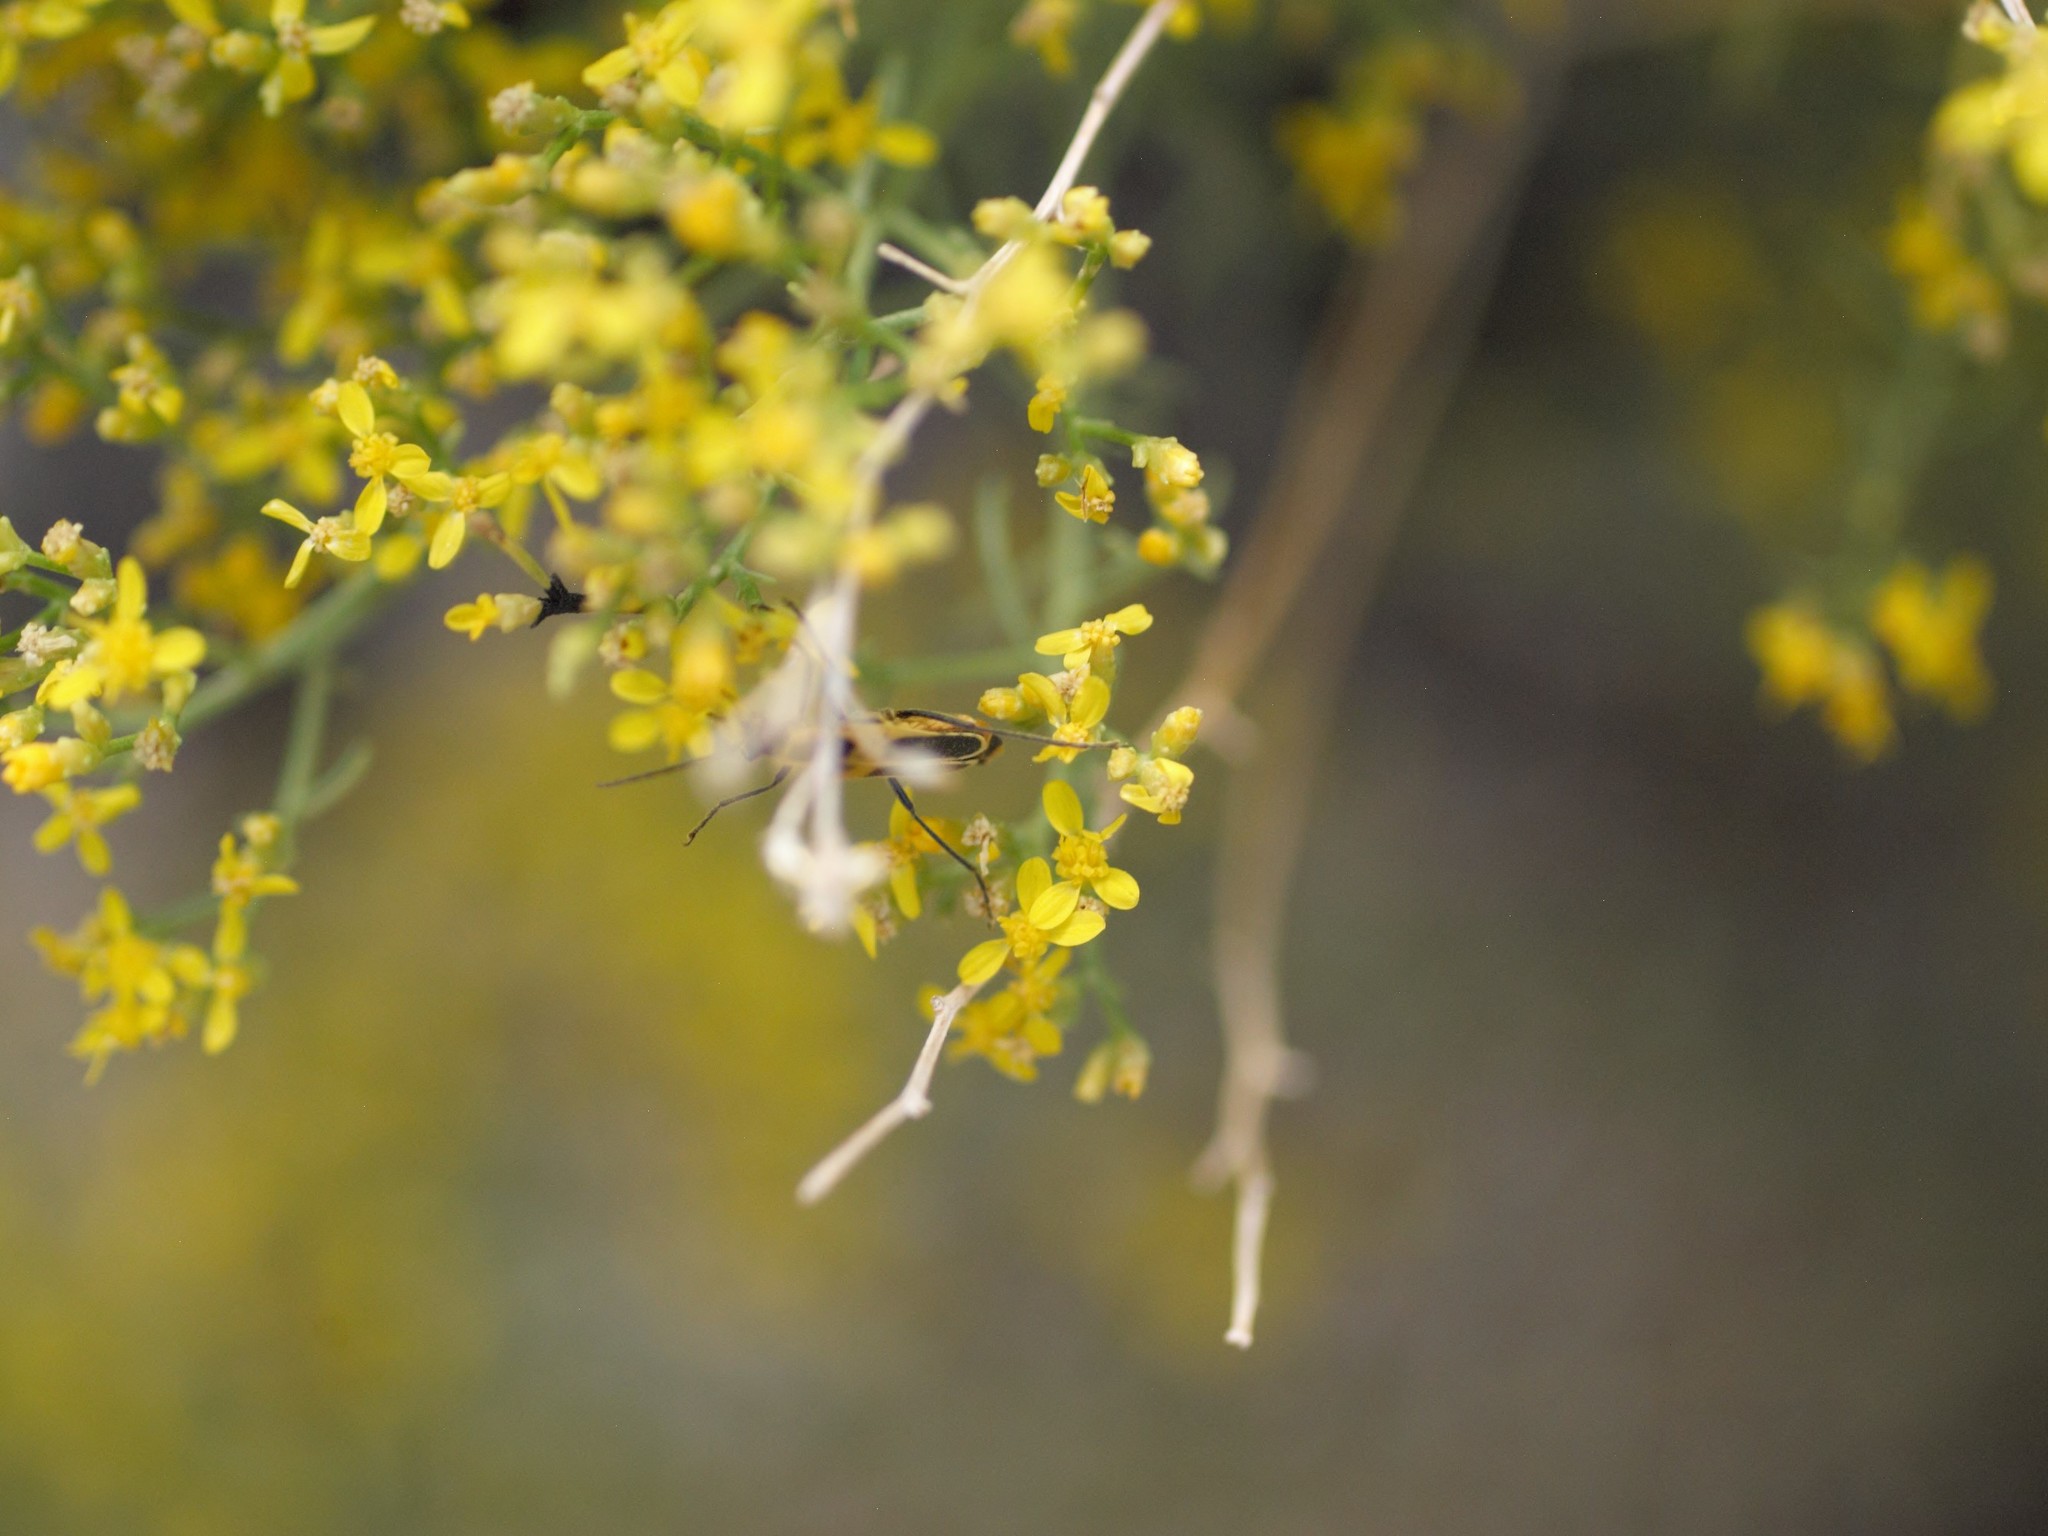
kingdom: Animalia
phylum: Arthropoda
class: Insecta
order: Coleoptera
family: Cantharidae
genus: Chauliognathus
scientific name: Chauliognathus lewisi
